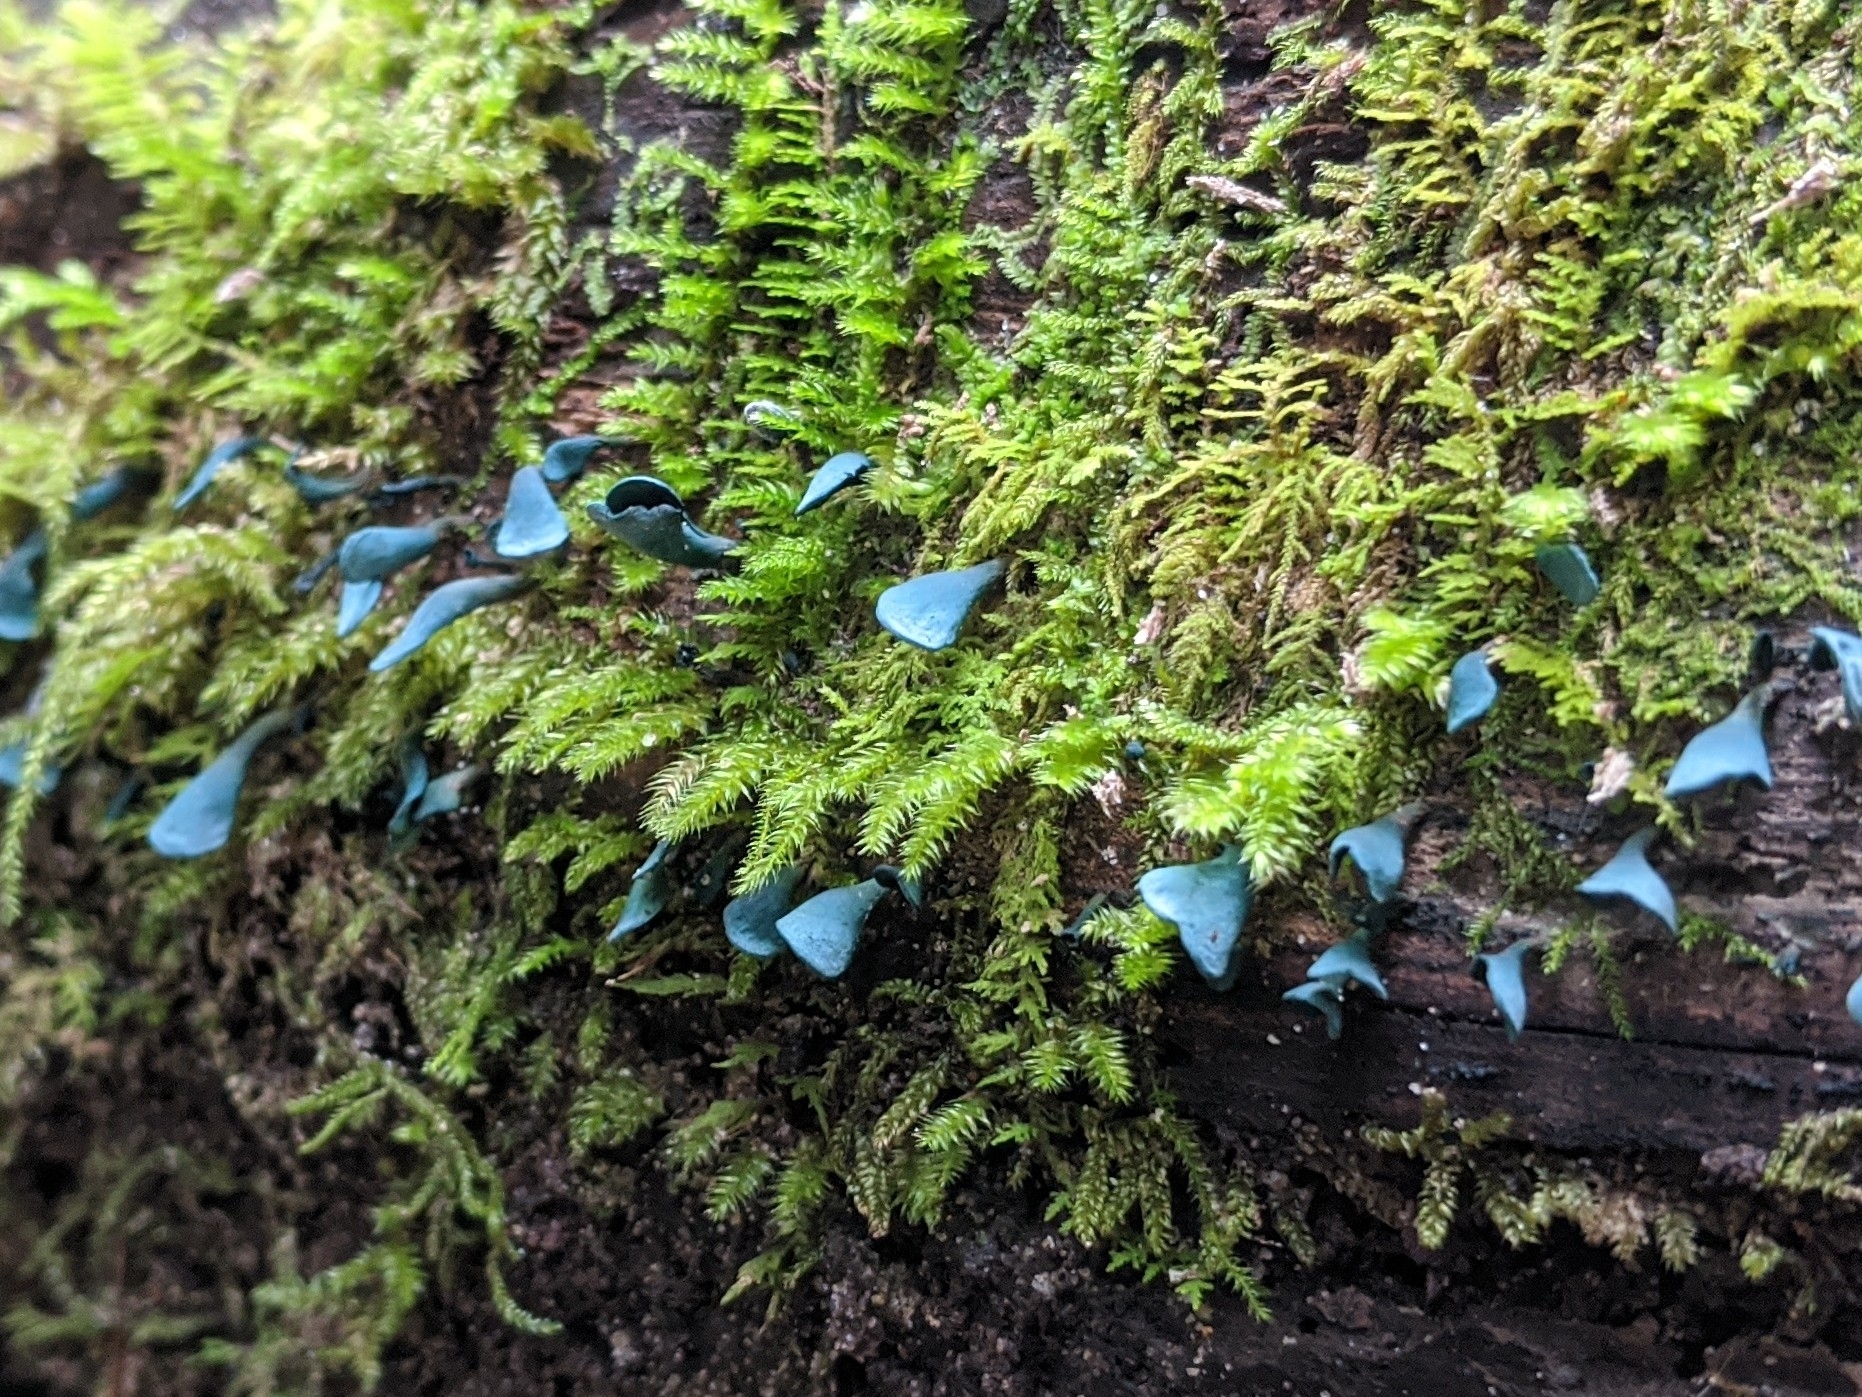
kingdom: Fungi
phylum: Ascomycota
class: Leotiomycetes
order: Helotiales
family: Chlorociboriaceae
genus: Chlorociboria
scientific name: Chlorociboria aeruginascens
